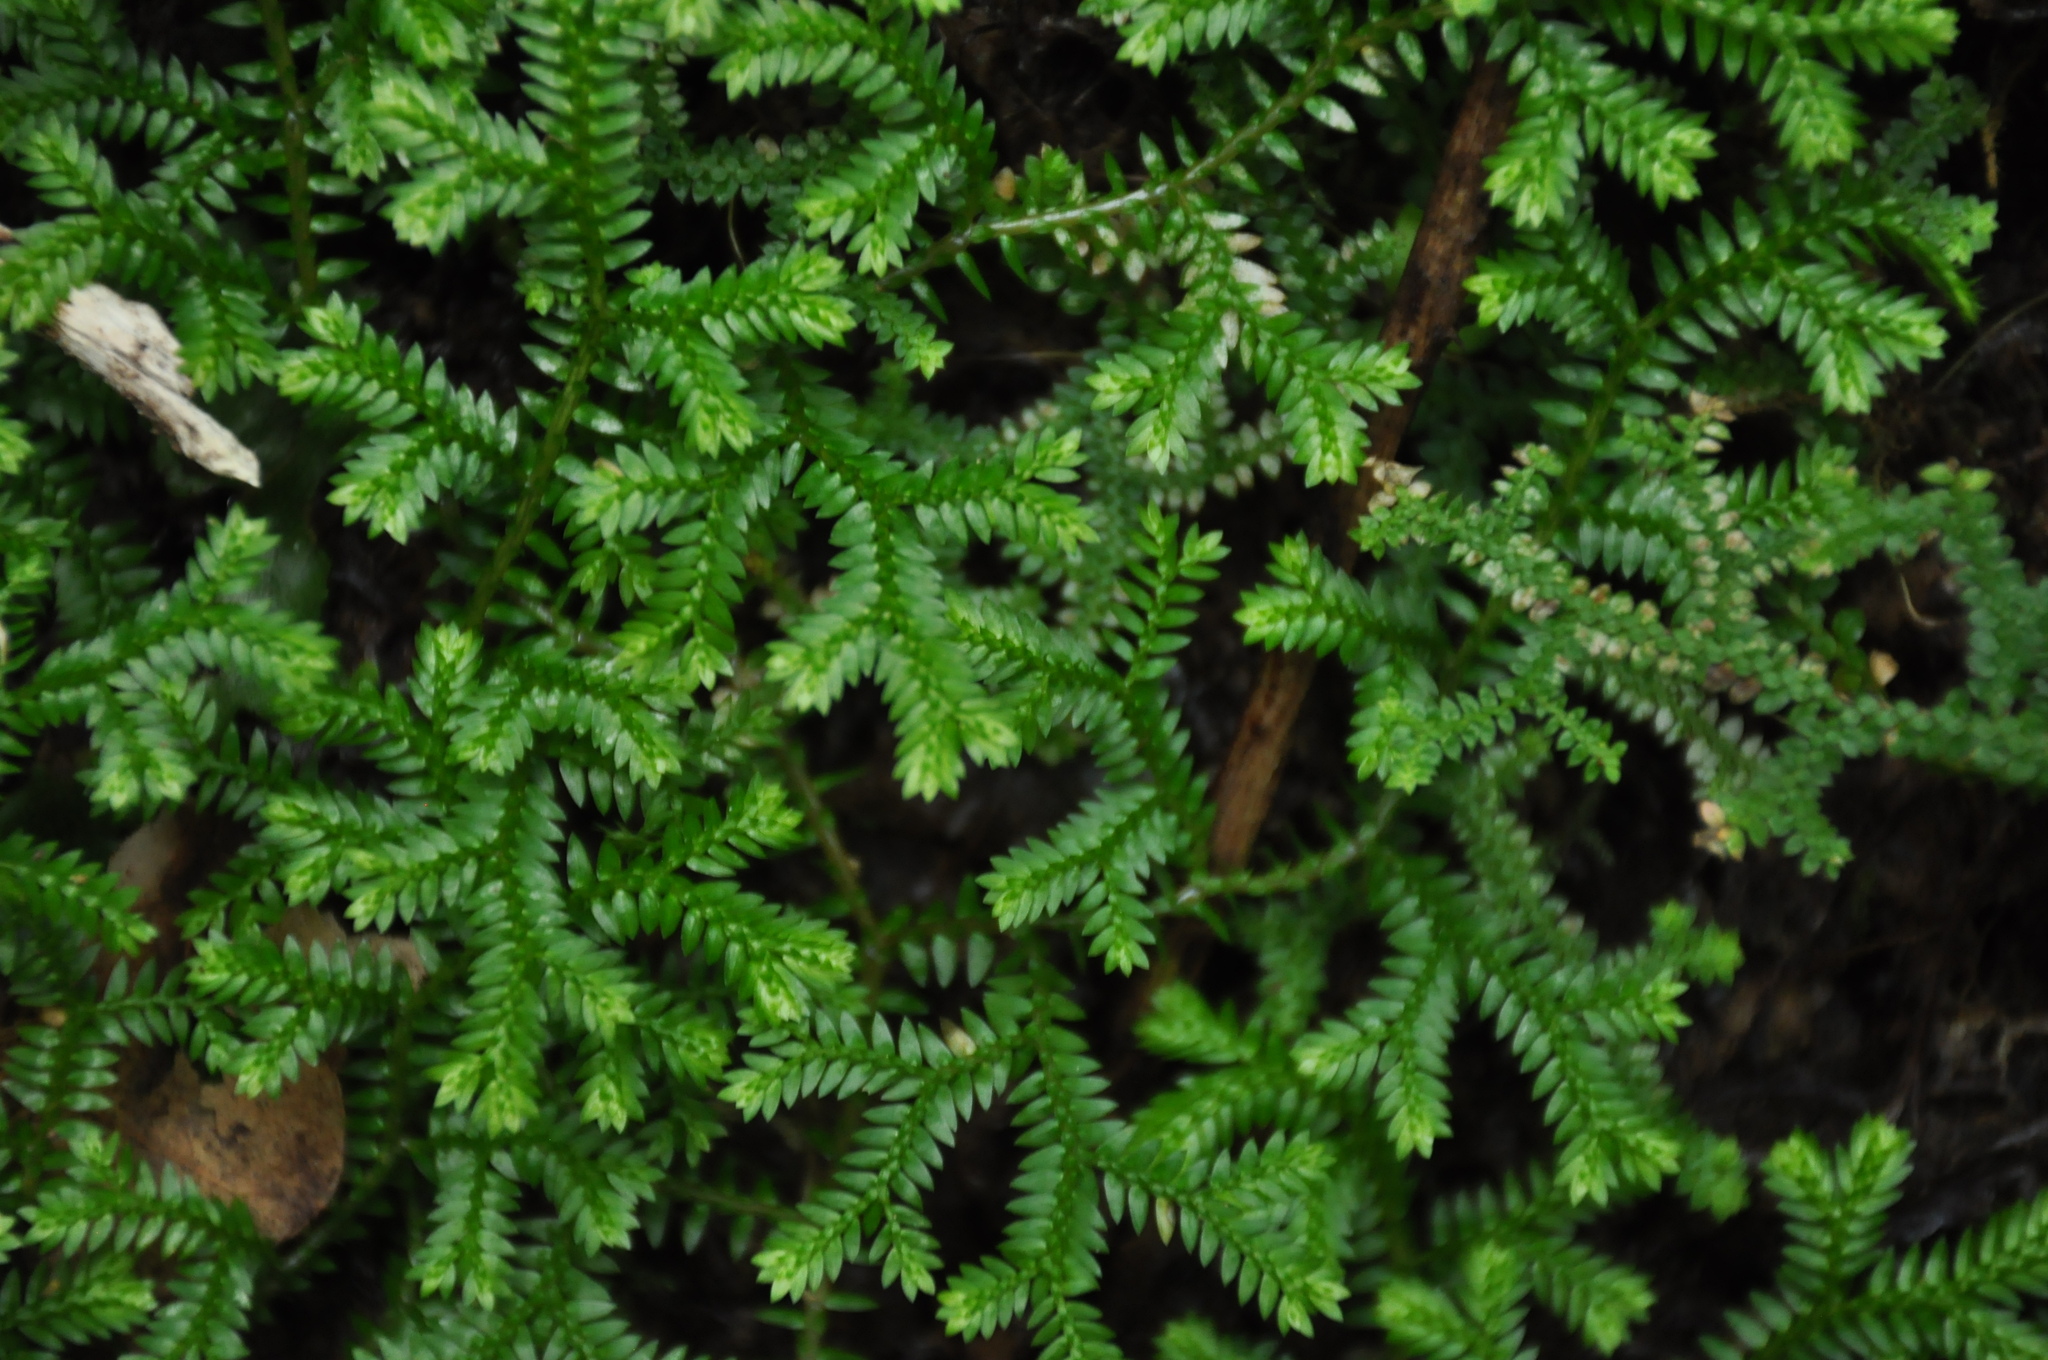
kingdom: Plantae
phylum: Tracheophyta
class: Lycopodiopsida
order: Selaginellales
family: Selaginellaceae
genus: Selaginella
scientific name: Selaginella kraussiana
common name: Krauss' spikemoss
